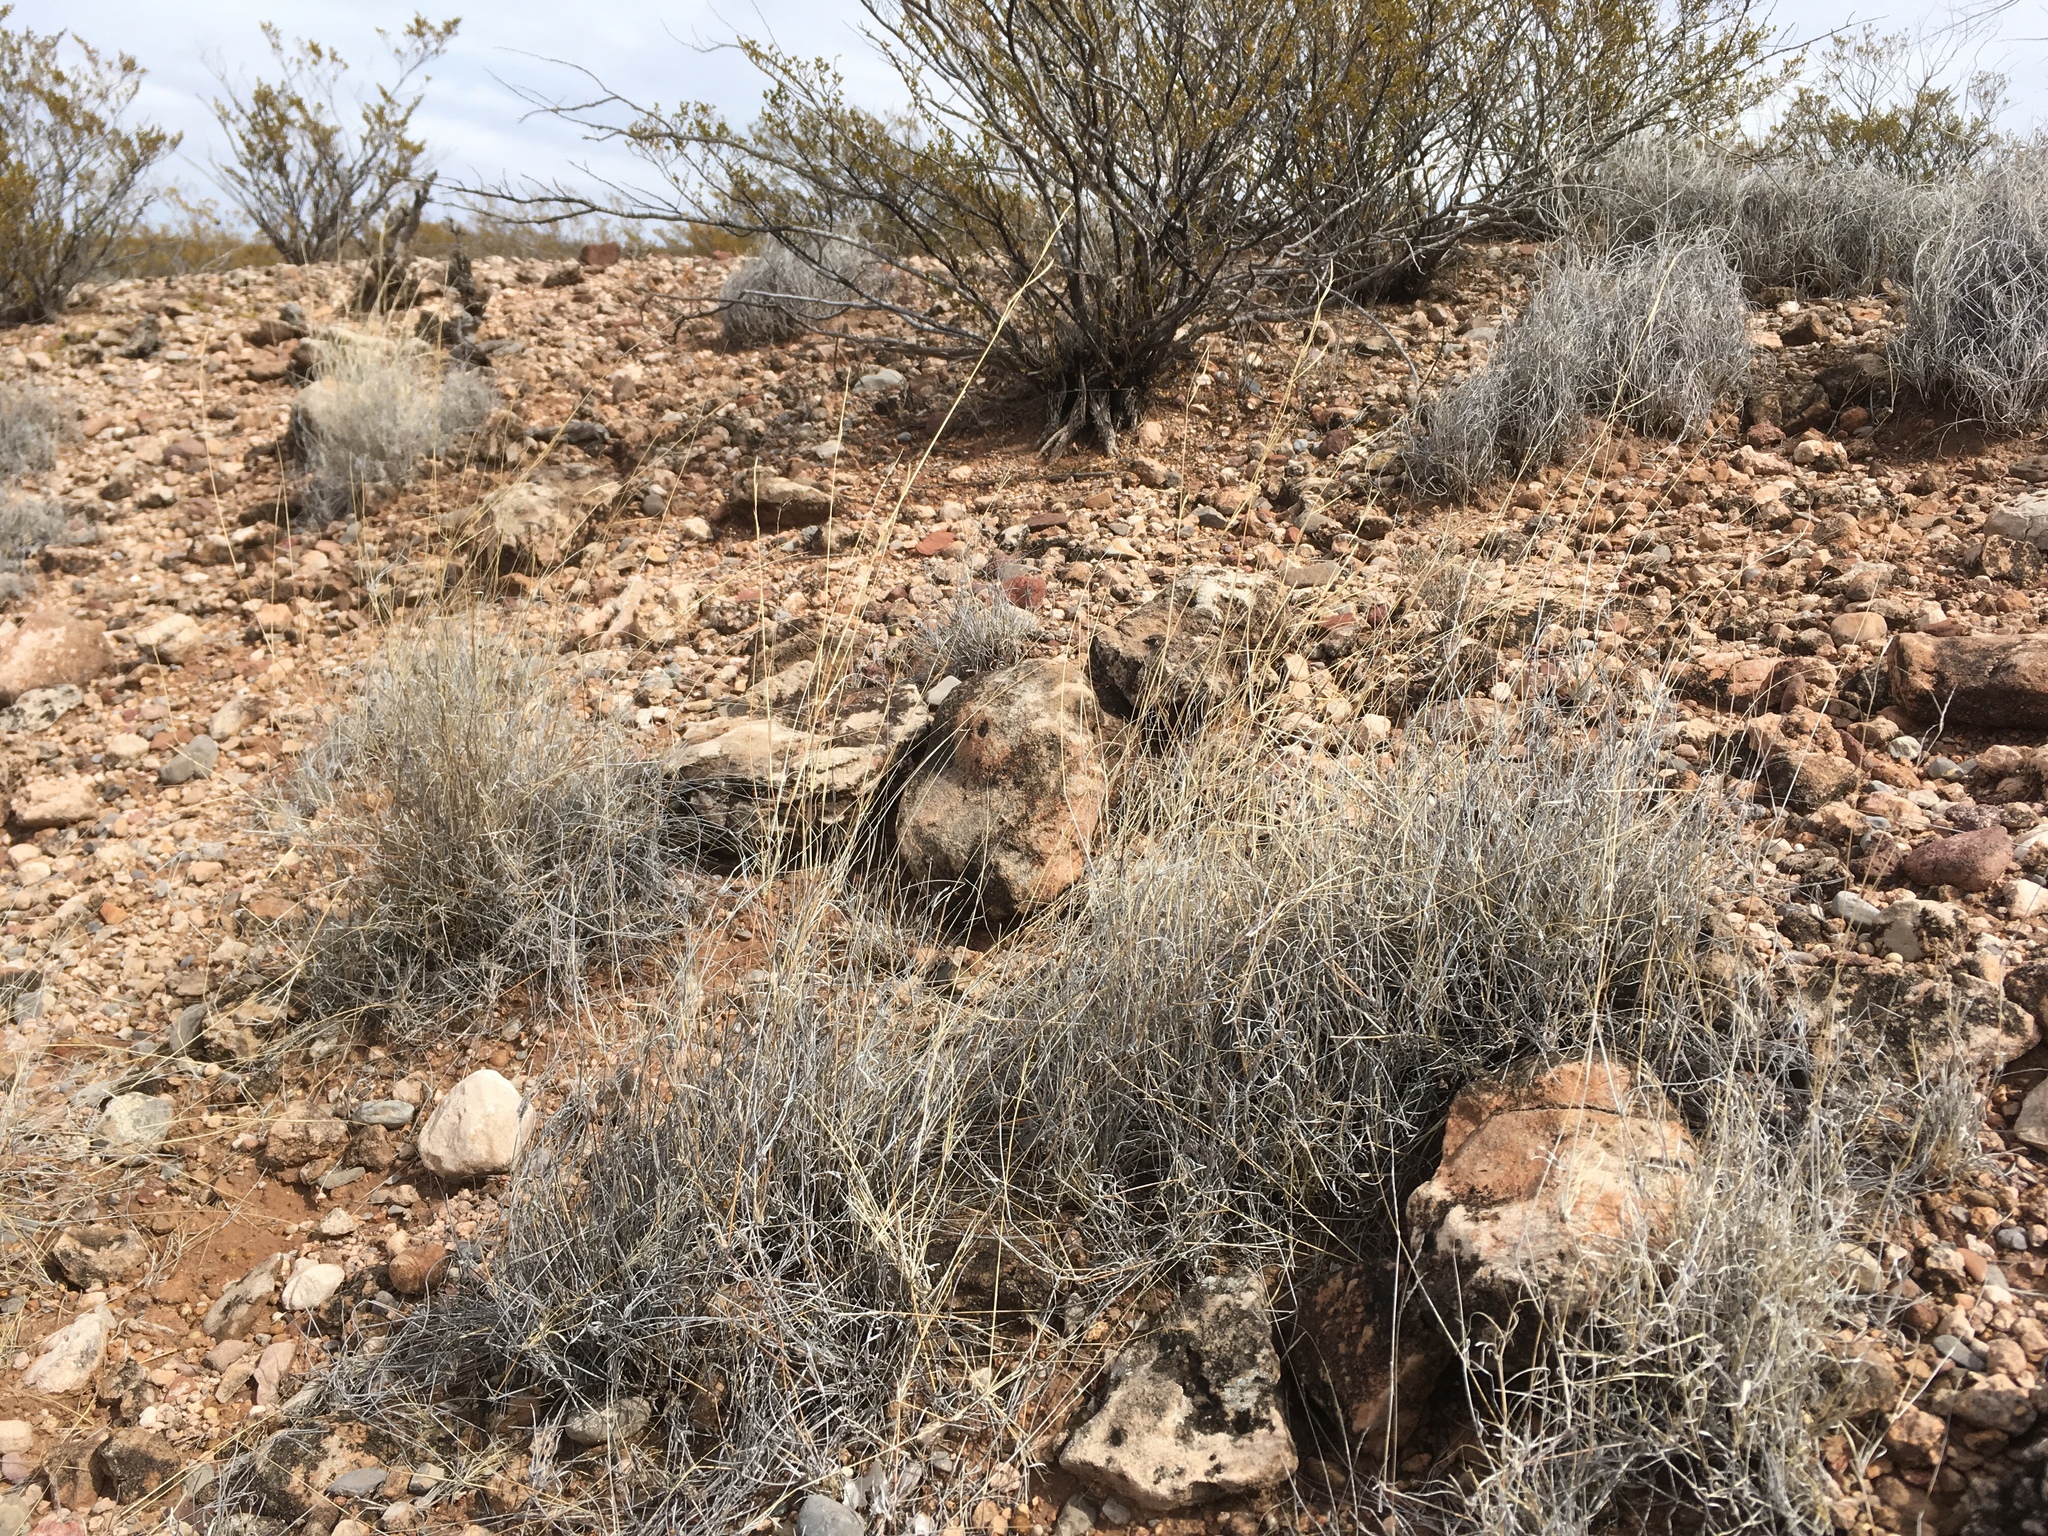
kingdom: Plantae
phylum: Tracheophyta
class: Liliopsida
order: Poales
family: Poaceae
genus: Bouteloua
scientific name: Bouteloua eriopoda
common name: Woolly foot grama
